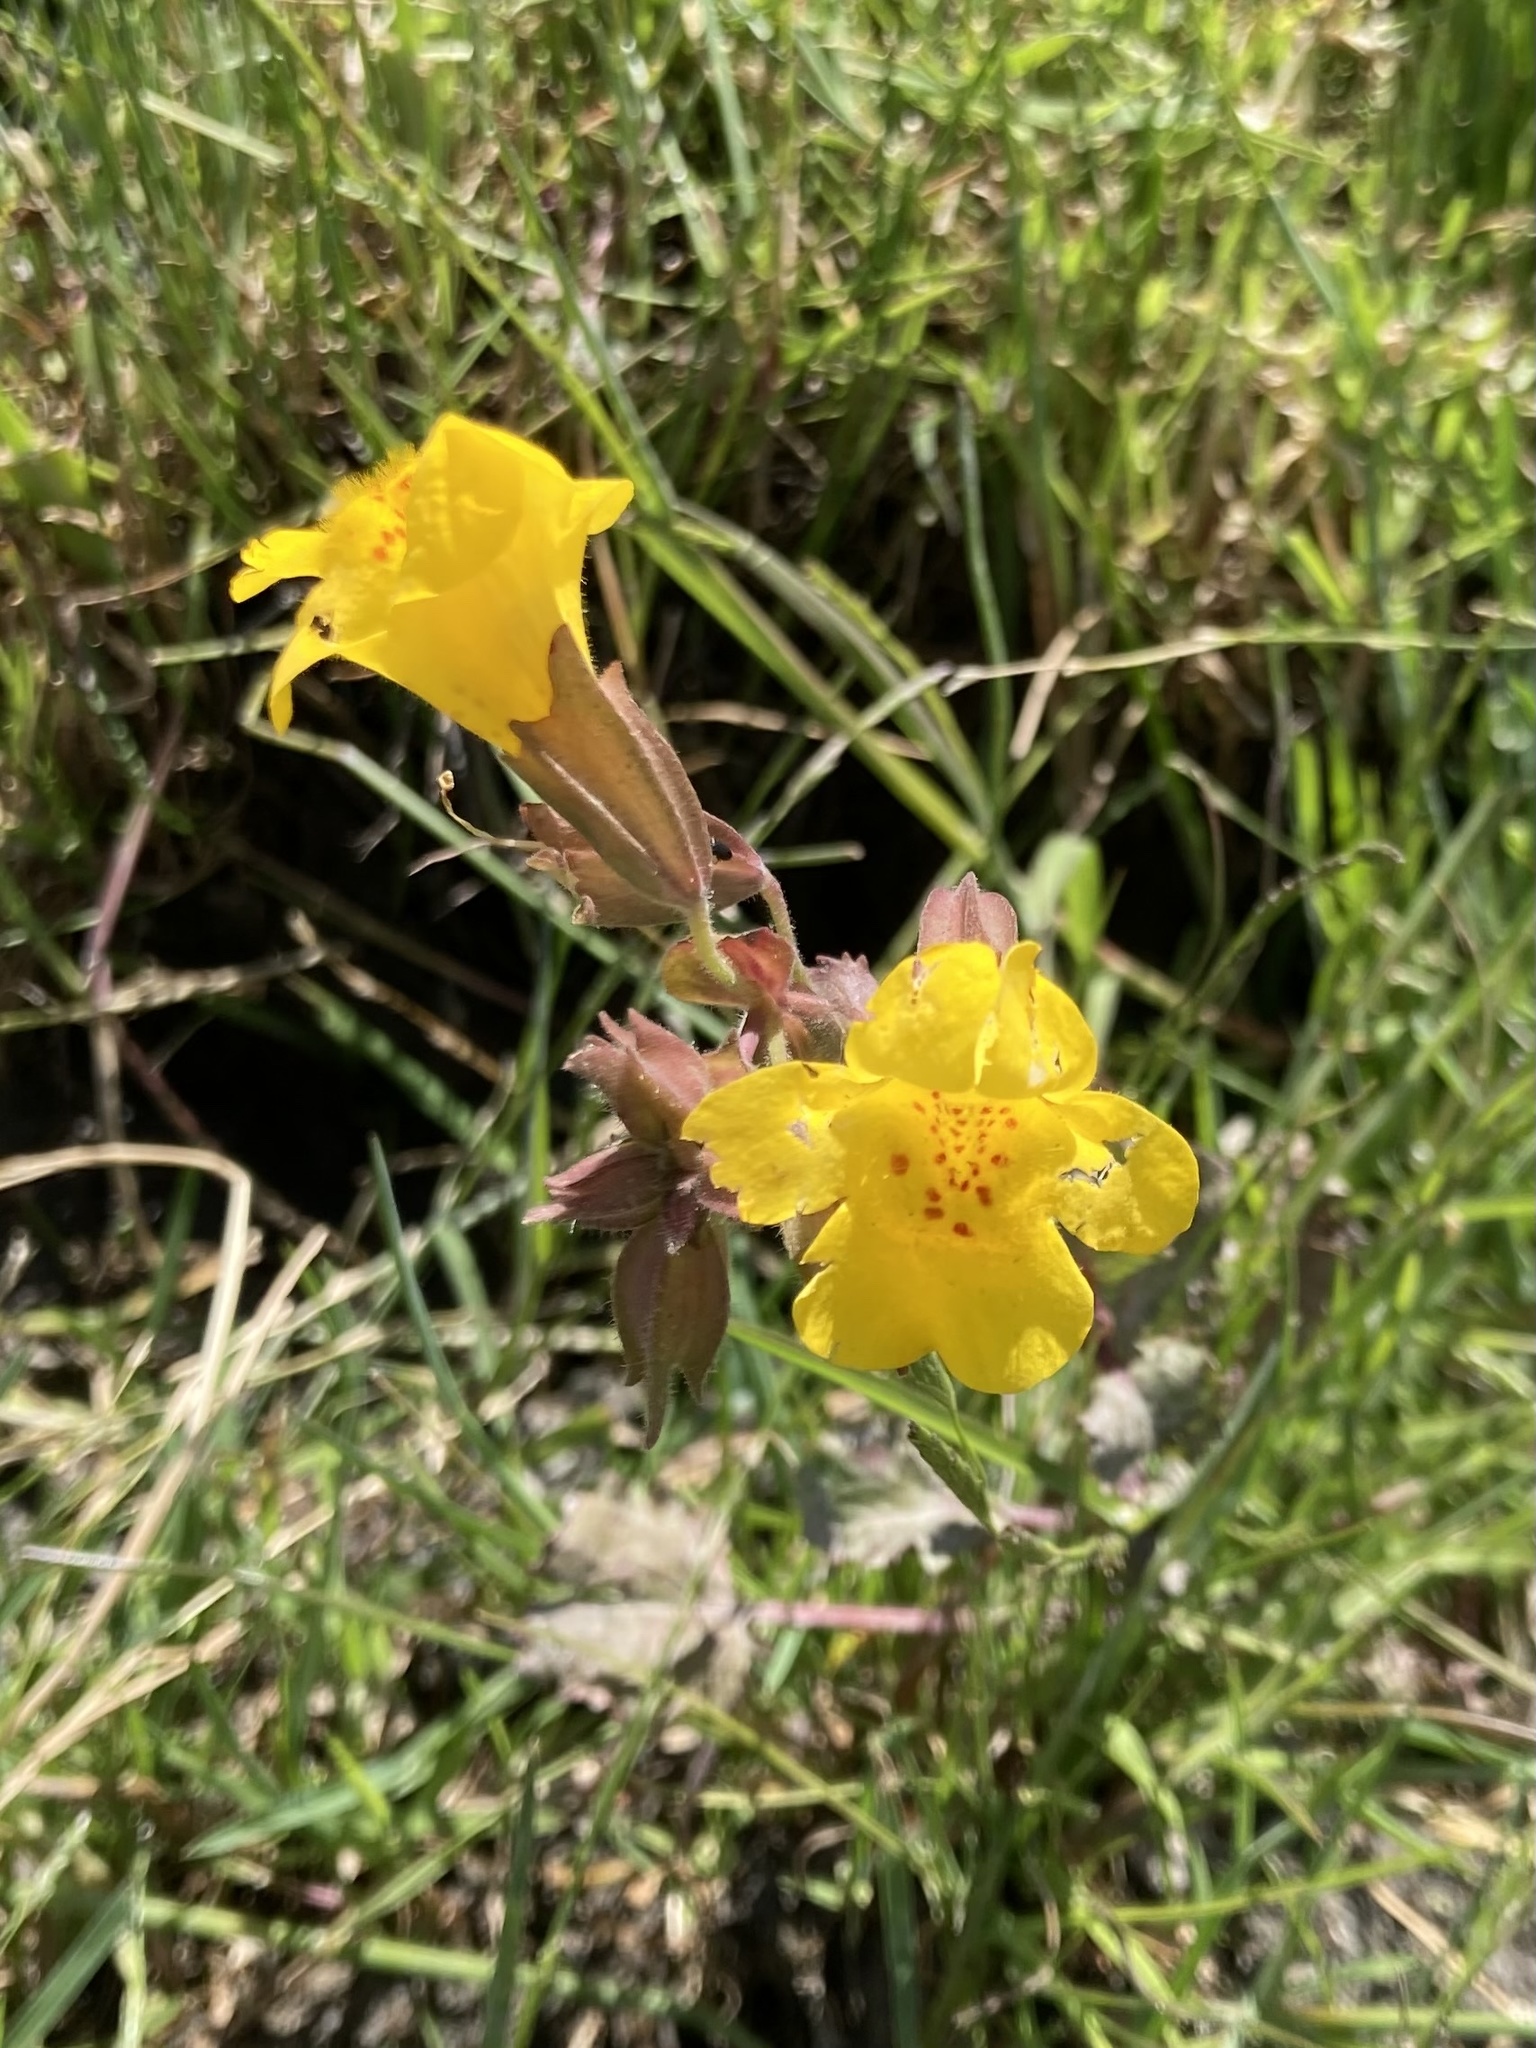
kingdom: Plantae
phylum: Tracheophyta
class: Magnoliopsida
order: Lamiales
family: Phrymaceae
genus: Erythranthe
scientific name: Erythranthe guttata
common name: Monkeyflower
